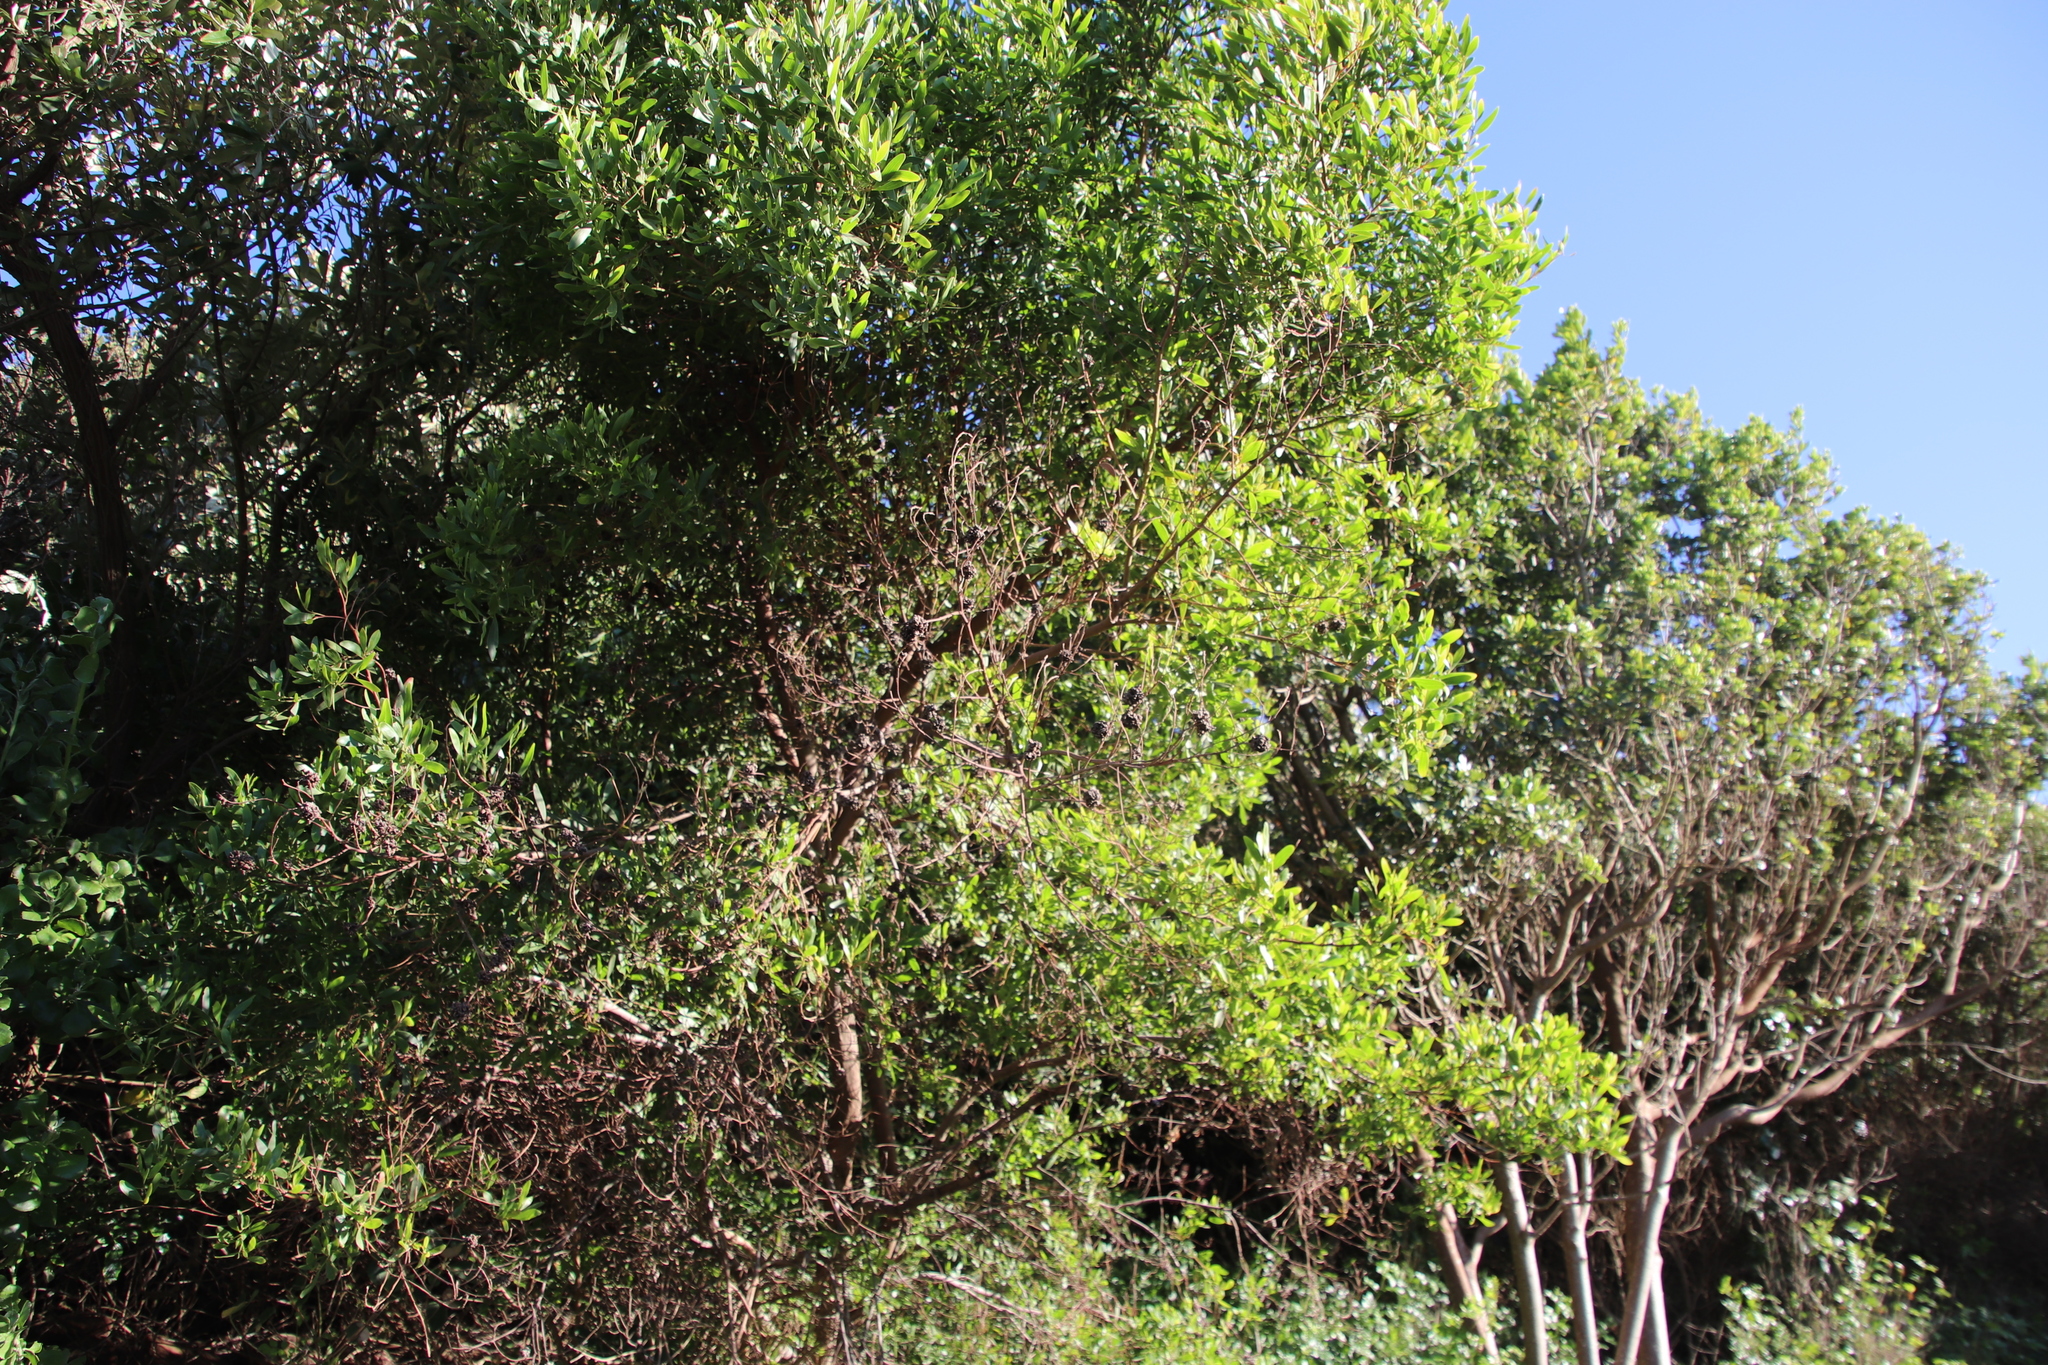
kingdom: Plantae
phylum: Tracheophyta
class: Magnoliopsida
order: Fabales
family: Fabaceae
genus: Acacia
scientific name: Acacia cyclops
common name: Coastal wattle
